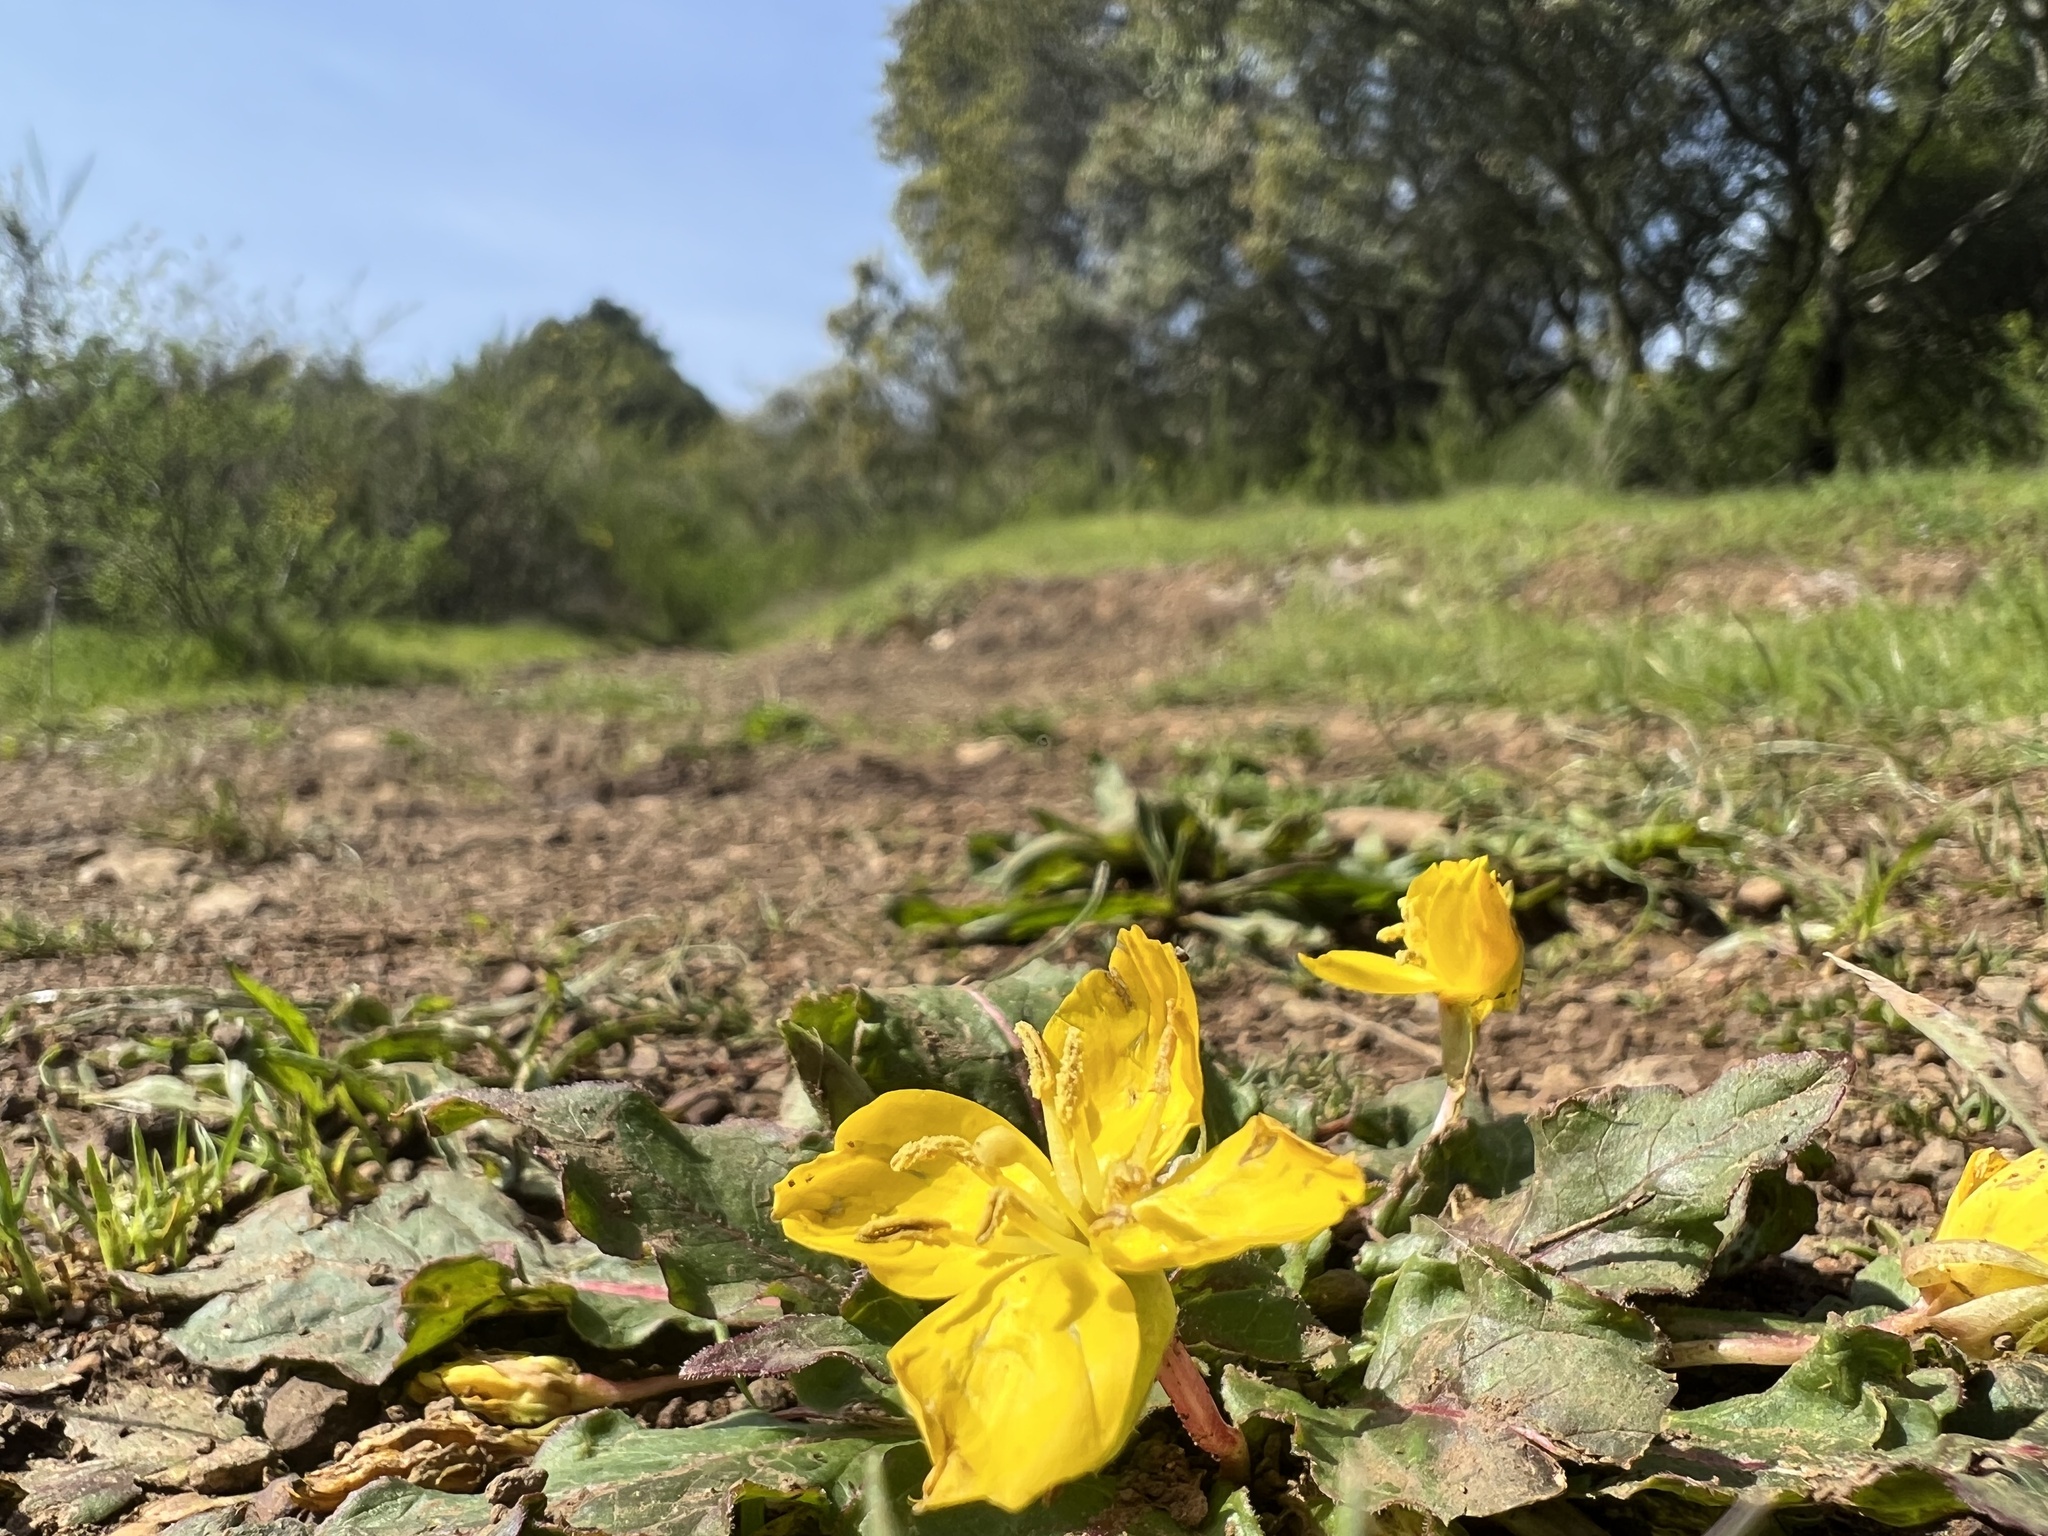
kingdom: Plantae
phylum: Tracheophyta
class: Magnoliopsida
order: Myrtales
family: Onagraceae
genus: Taraxia
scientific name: Taraxia ovata
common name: Goldeneggs
